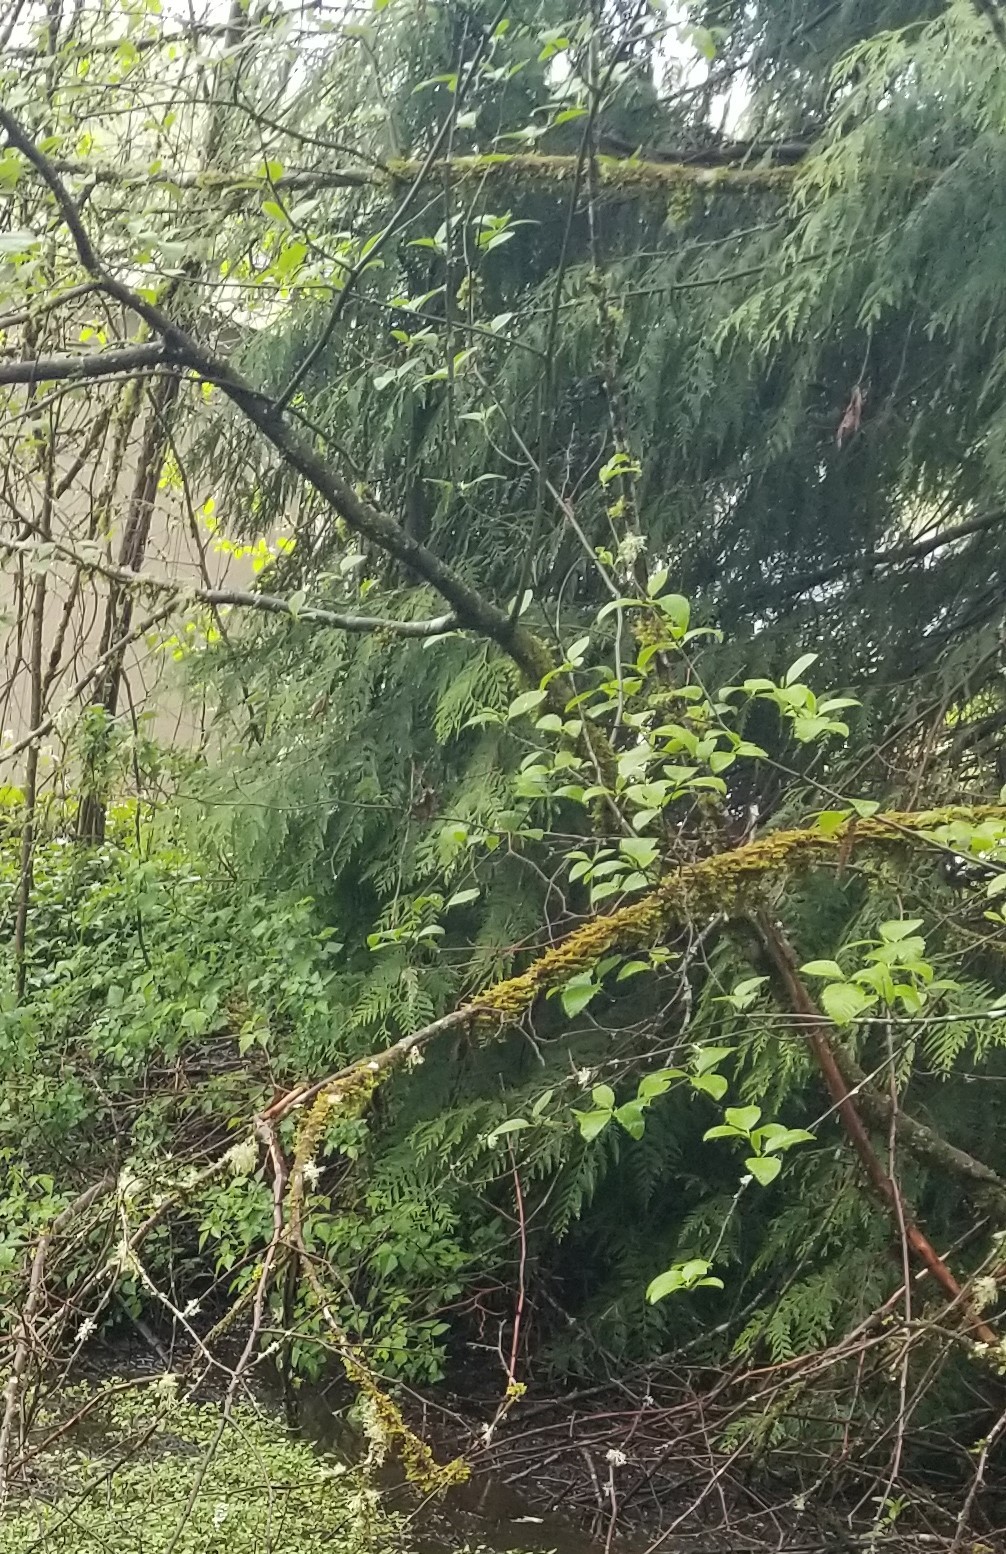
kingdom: Plantae
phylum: Tracheophyta
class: Pinopsida
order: Pinales
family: Cupressaceae
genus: Thuja
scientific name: Thuja plicata
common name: Western red-cedar
